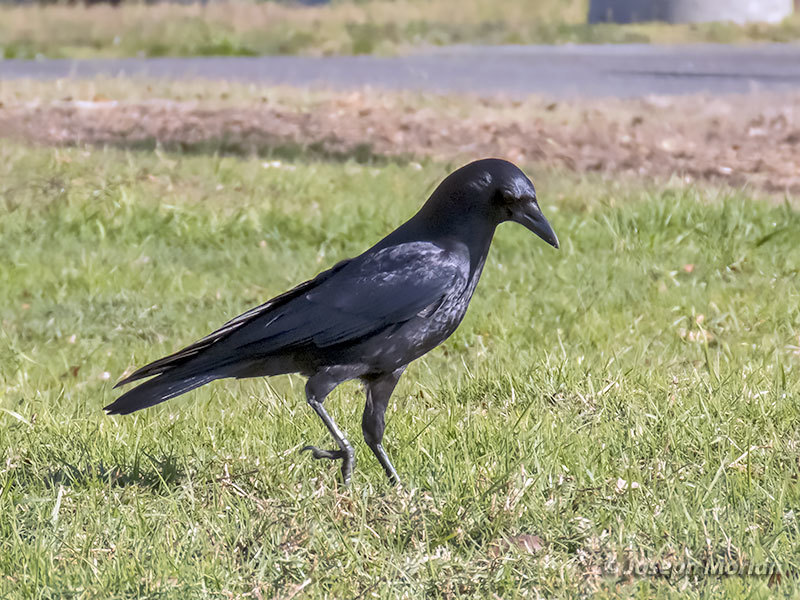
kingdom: Animalia
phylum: Chordata
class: Aves
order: Passeriformes
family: Corvidae
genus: Corvus
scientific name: Corvus brachyrhynchos
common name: American crow
